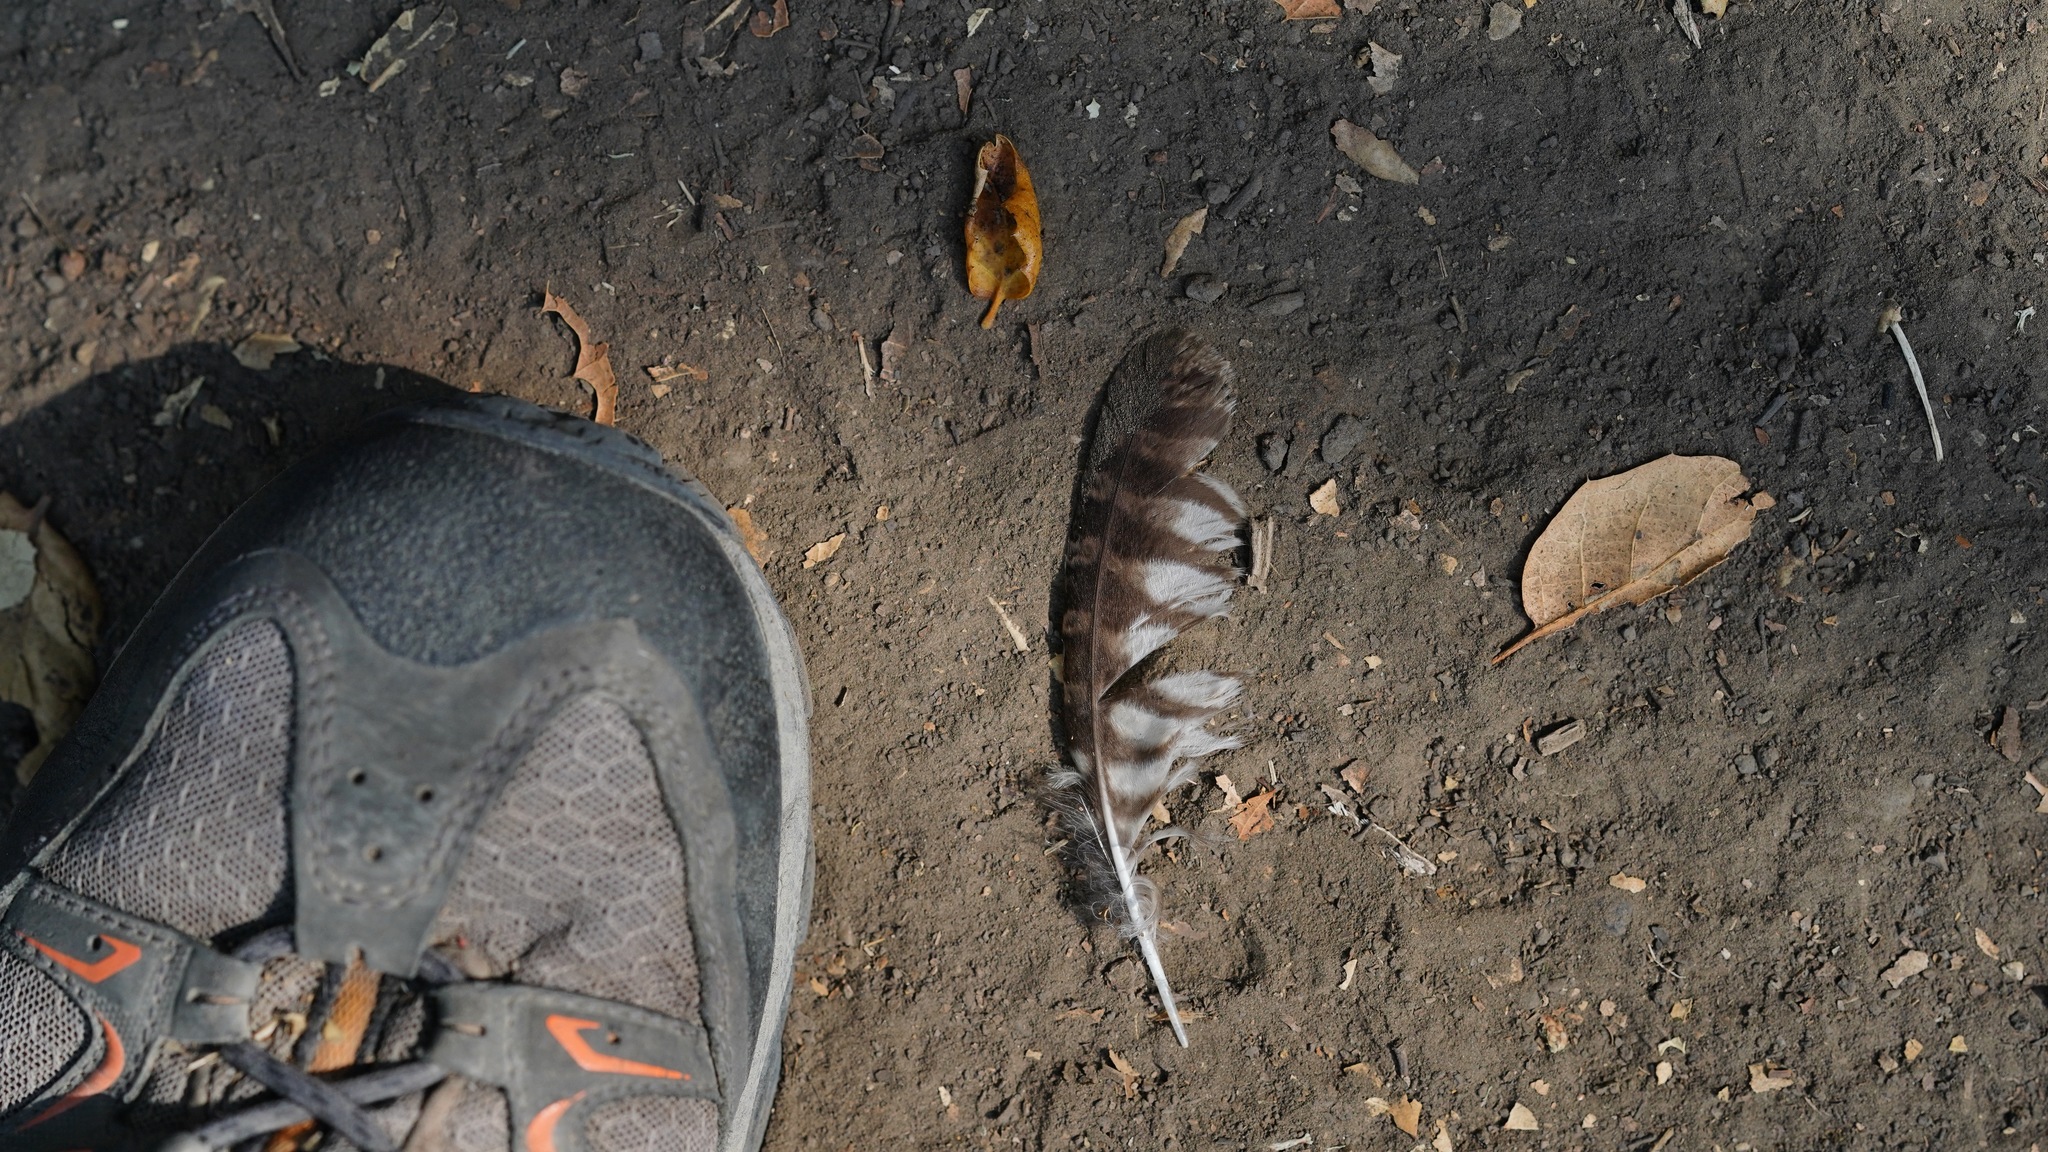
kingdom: Animalia
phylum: Chordata
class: Aves
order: Strigiformes
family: Strigidae
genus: Megascops
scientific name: Megascops kennicottii
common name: Western screech-owl
